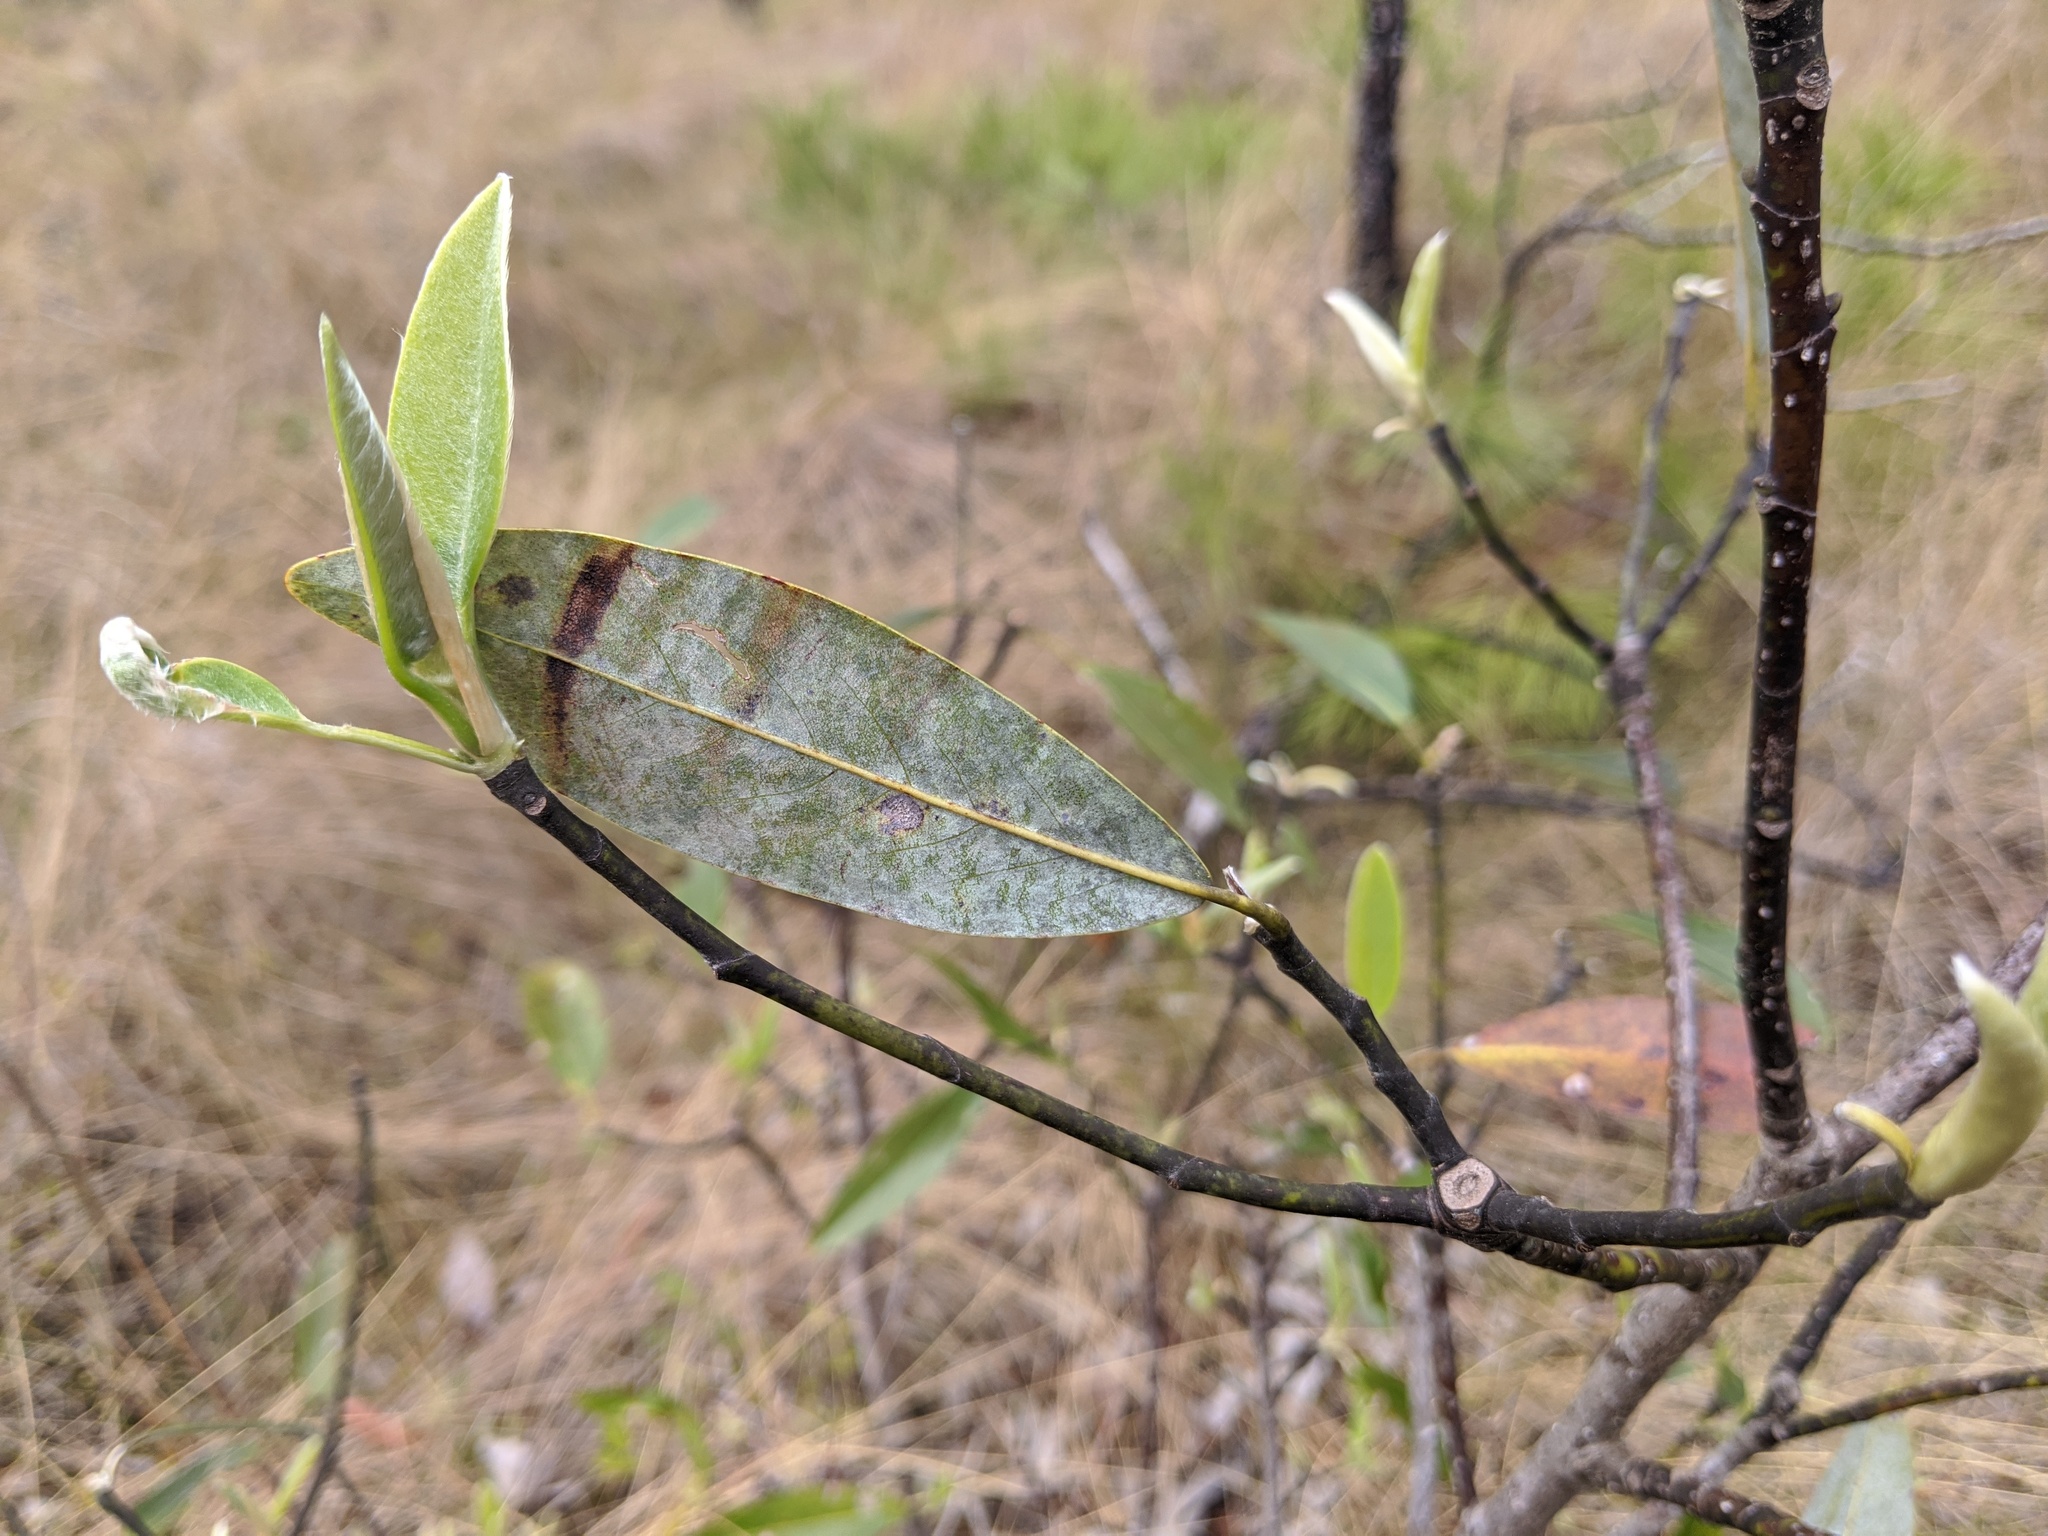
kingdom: Plantae
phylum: Tracheophyta
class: Magnoliopsida
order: Magnoliales
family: Magnoliaceae
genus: Magnolia
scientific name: Magnolia virginiana
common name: Swamp bay
